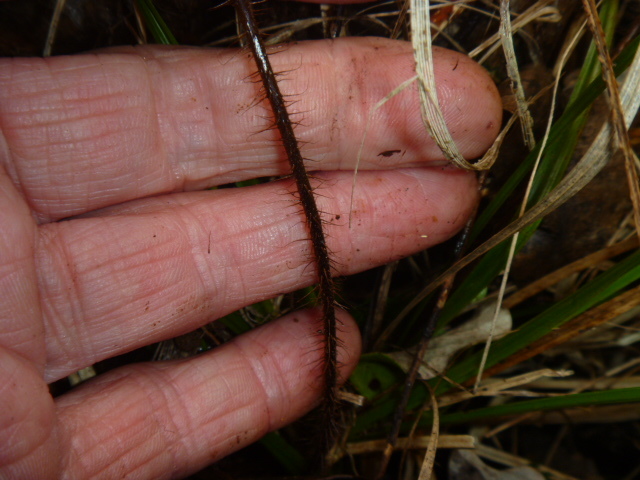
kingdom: Plantae
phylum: Tracheophyta
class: Polypodiopsida
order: Polypodiales
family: Dryopteridaceae
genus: Lastreopsis
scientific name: Lastreopsis hispida
